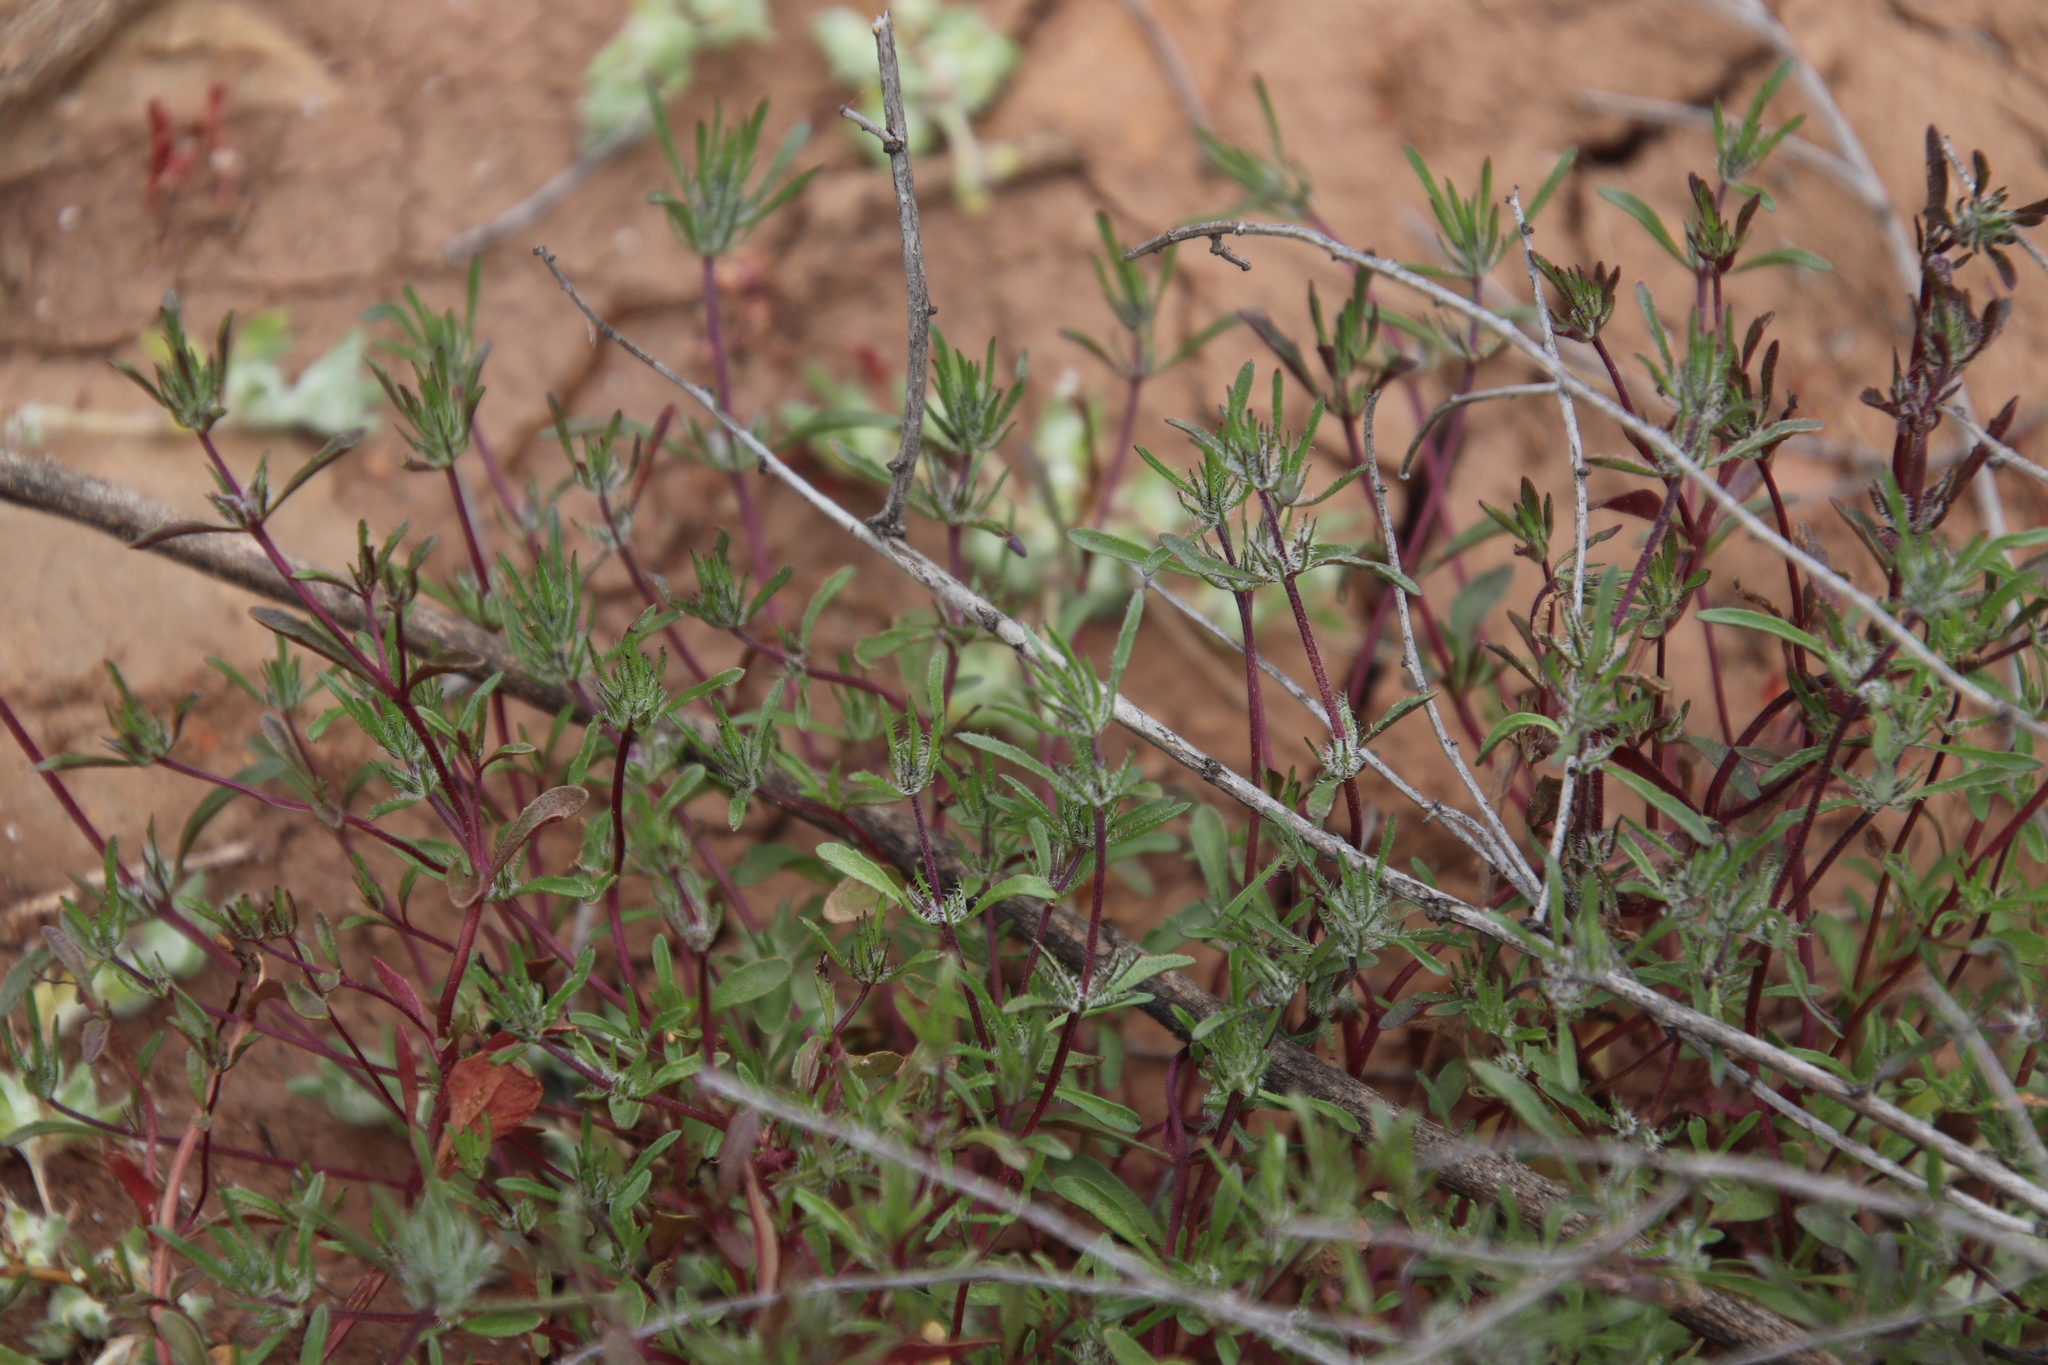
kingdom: Plantae
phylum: Tracheophyta
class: Magnoliopsida
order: Lamiales
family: Lamiaceae
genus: Pogogyne
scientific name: Pogogyne abramsii
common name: San diego mesa-mint
